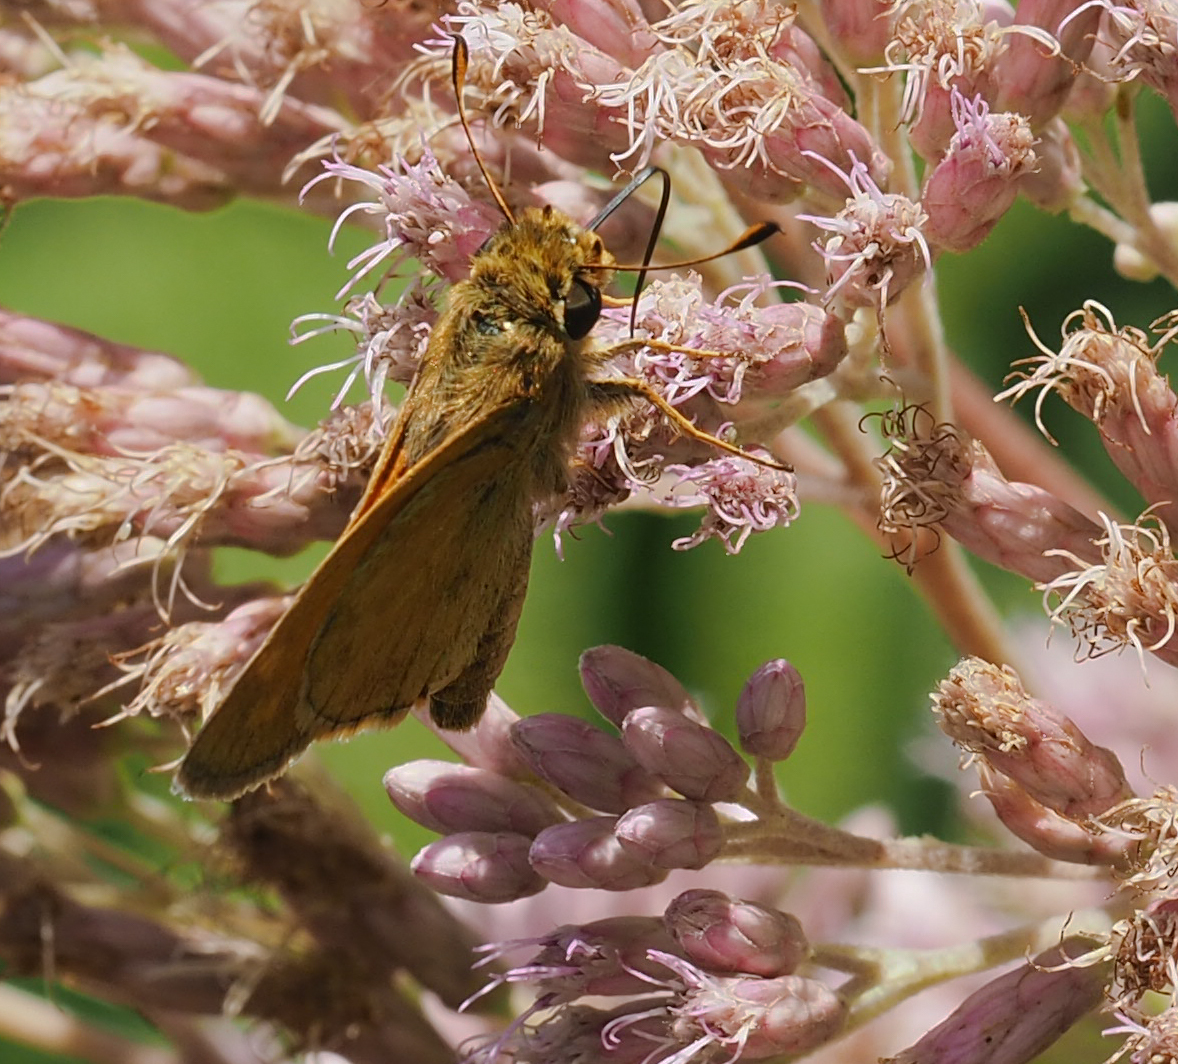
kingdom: Animalia
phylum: Arthropoda
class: Insecta
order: Lepidoptera
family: Hesperiidae
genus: Atalopedes
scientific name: Atalopedes
